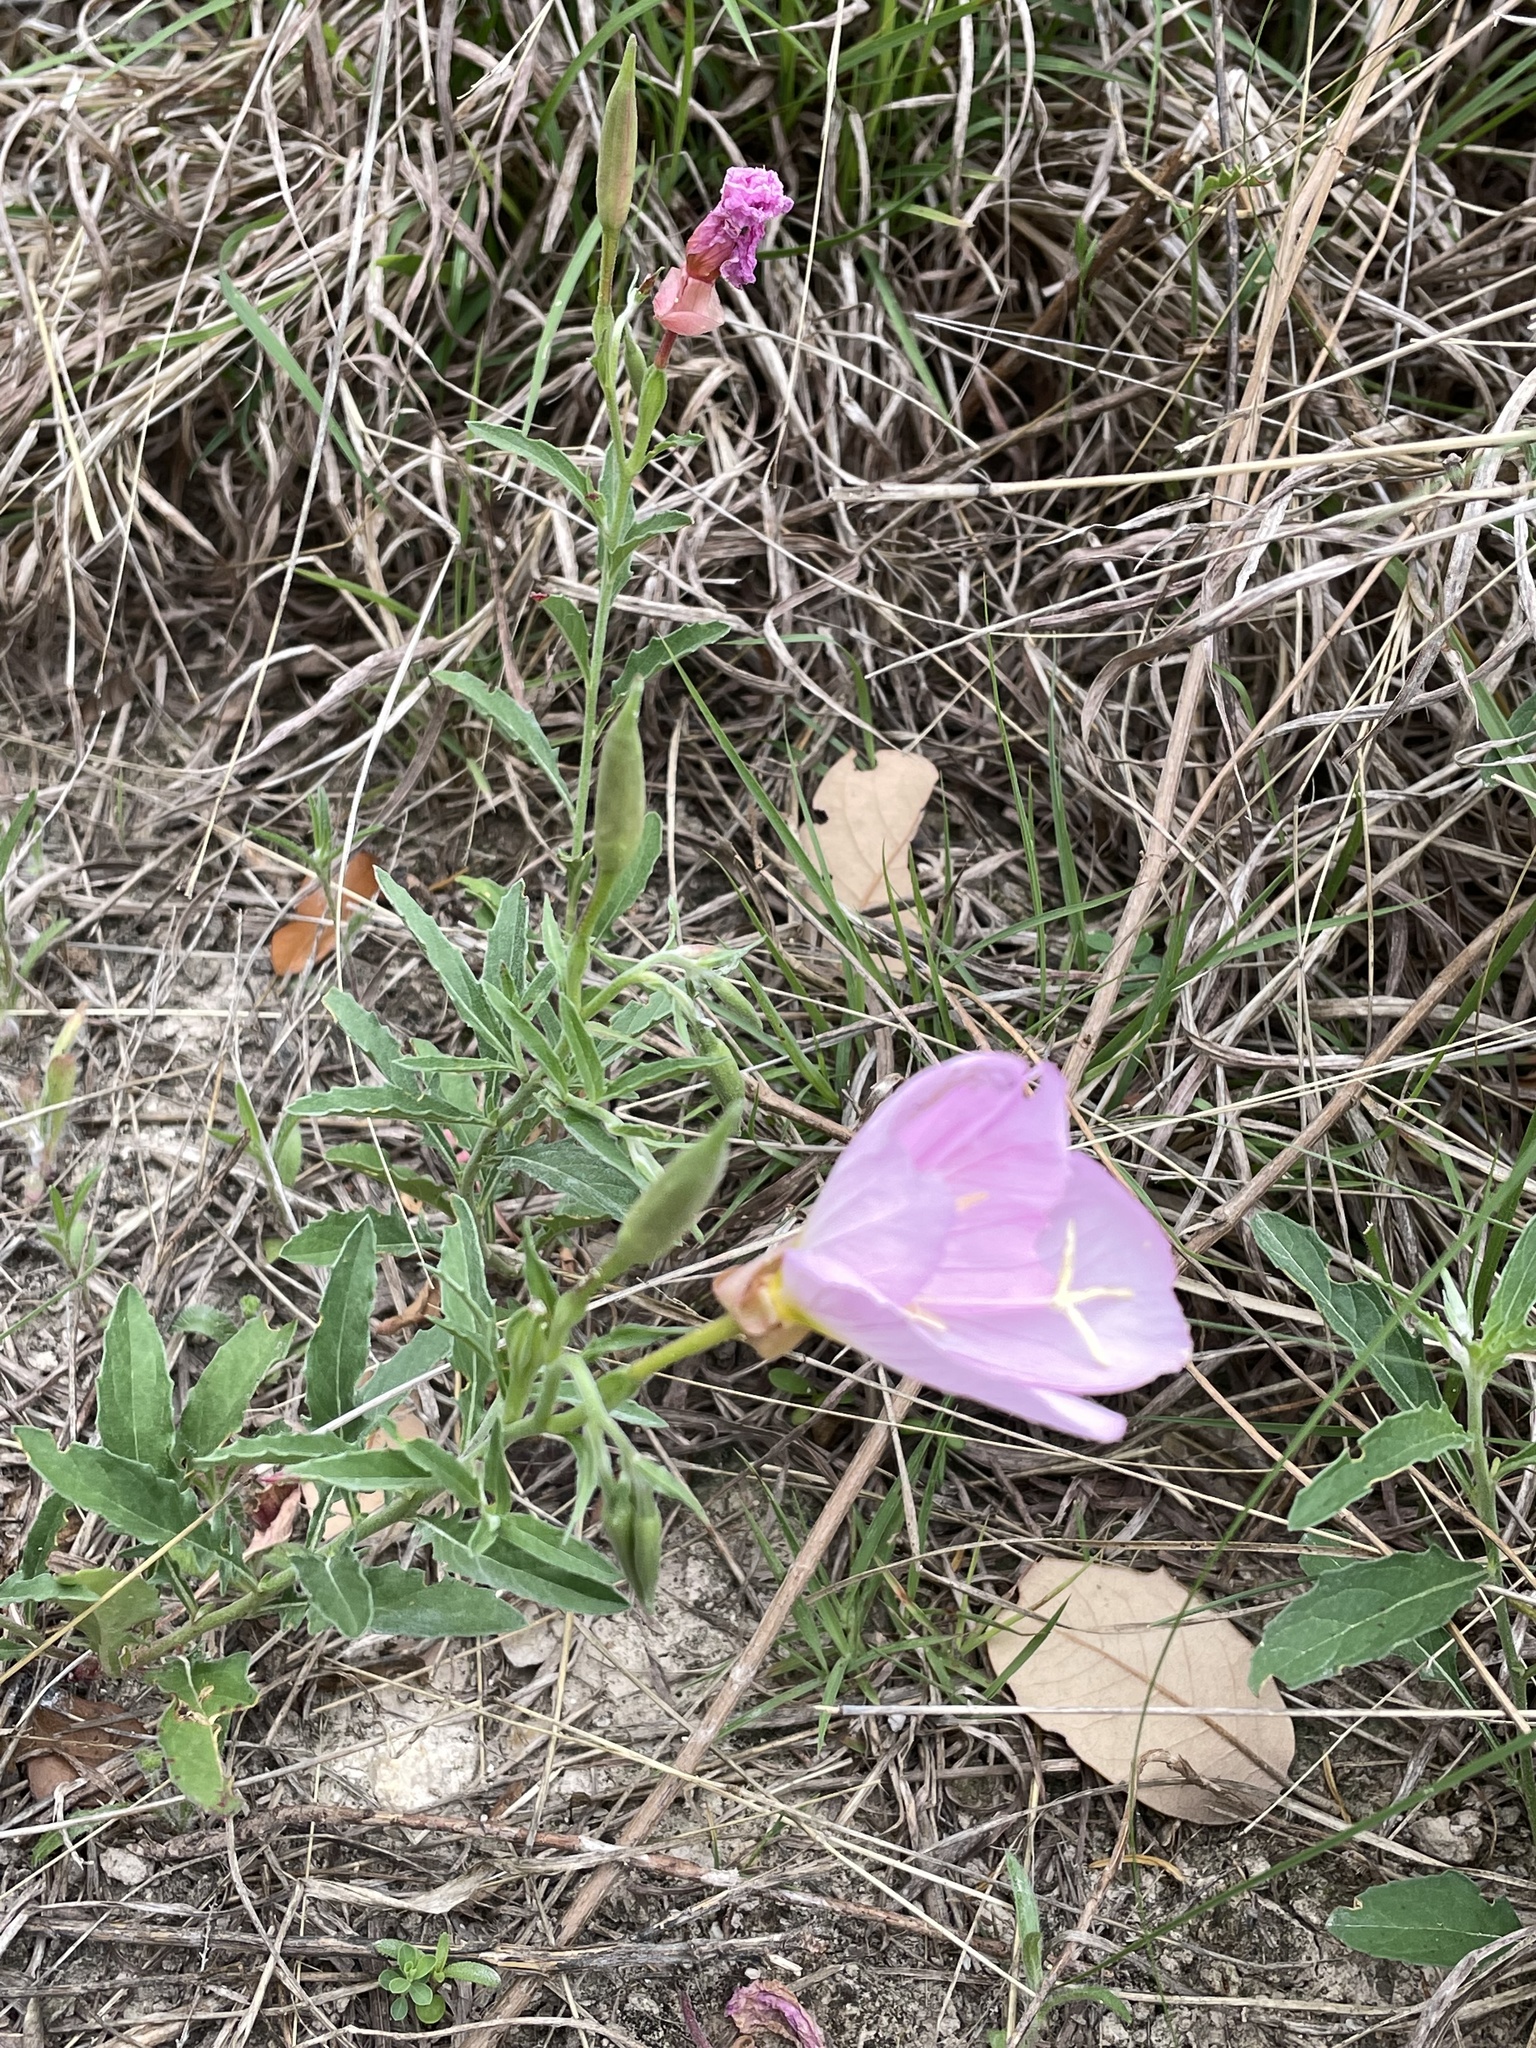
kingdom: Plantae
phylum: Tracheophyta
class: Magnoliopsida
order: Myrtales
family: Onagraceae
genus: Oenothera
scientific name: Oenothera speciosa
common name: White evening-primrose
